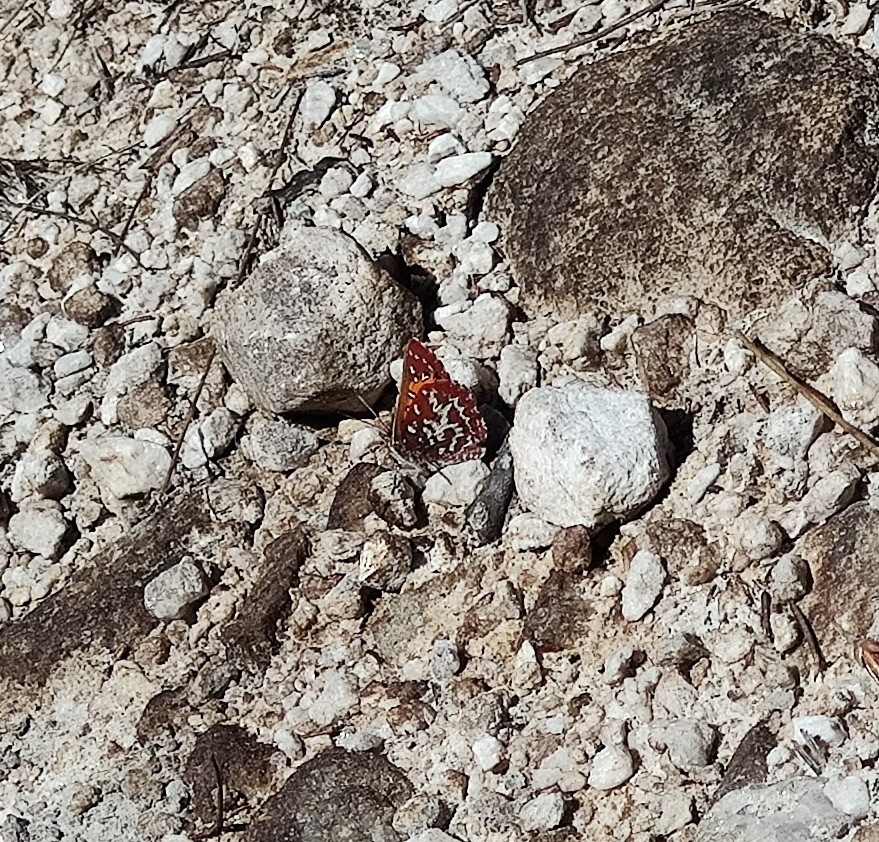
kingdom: Animalia
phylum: Arthropoda
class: Insecta
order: Lepidoptera
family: Lycaenidae
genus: Aloeides
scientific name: Aloeides pallida
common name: Giant copper
